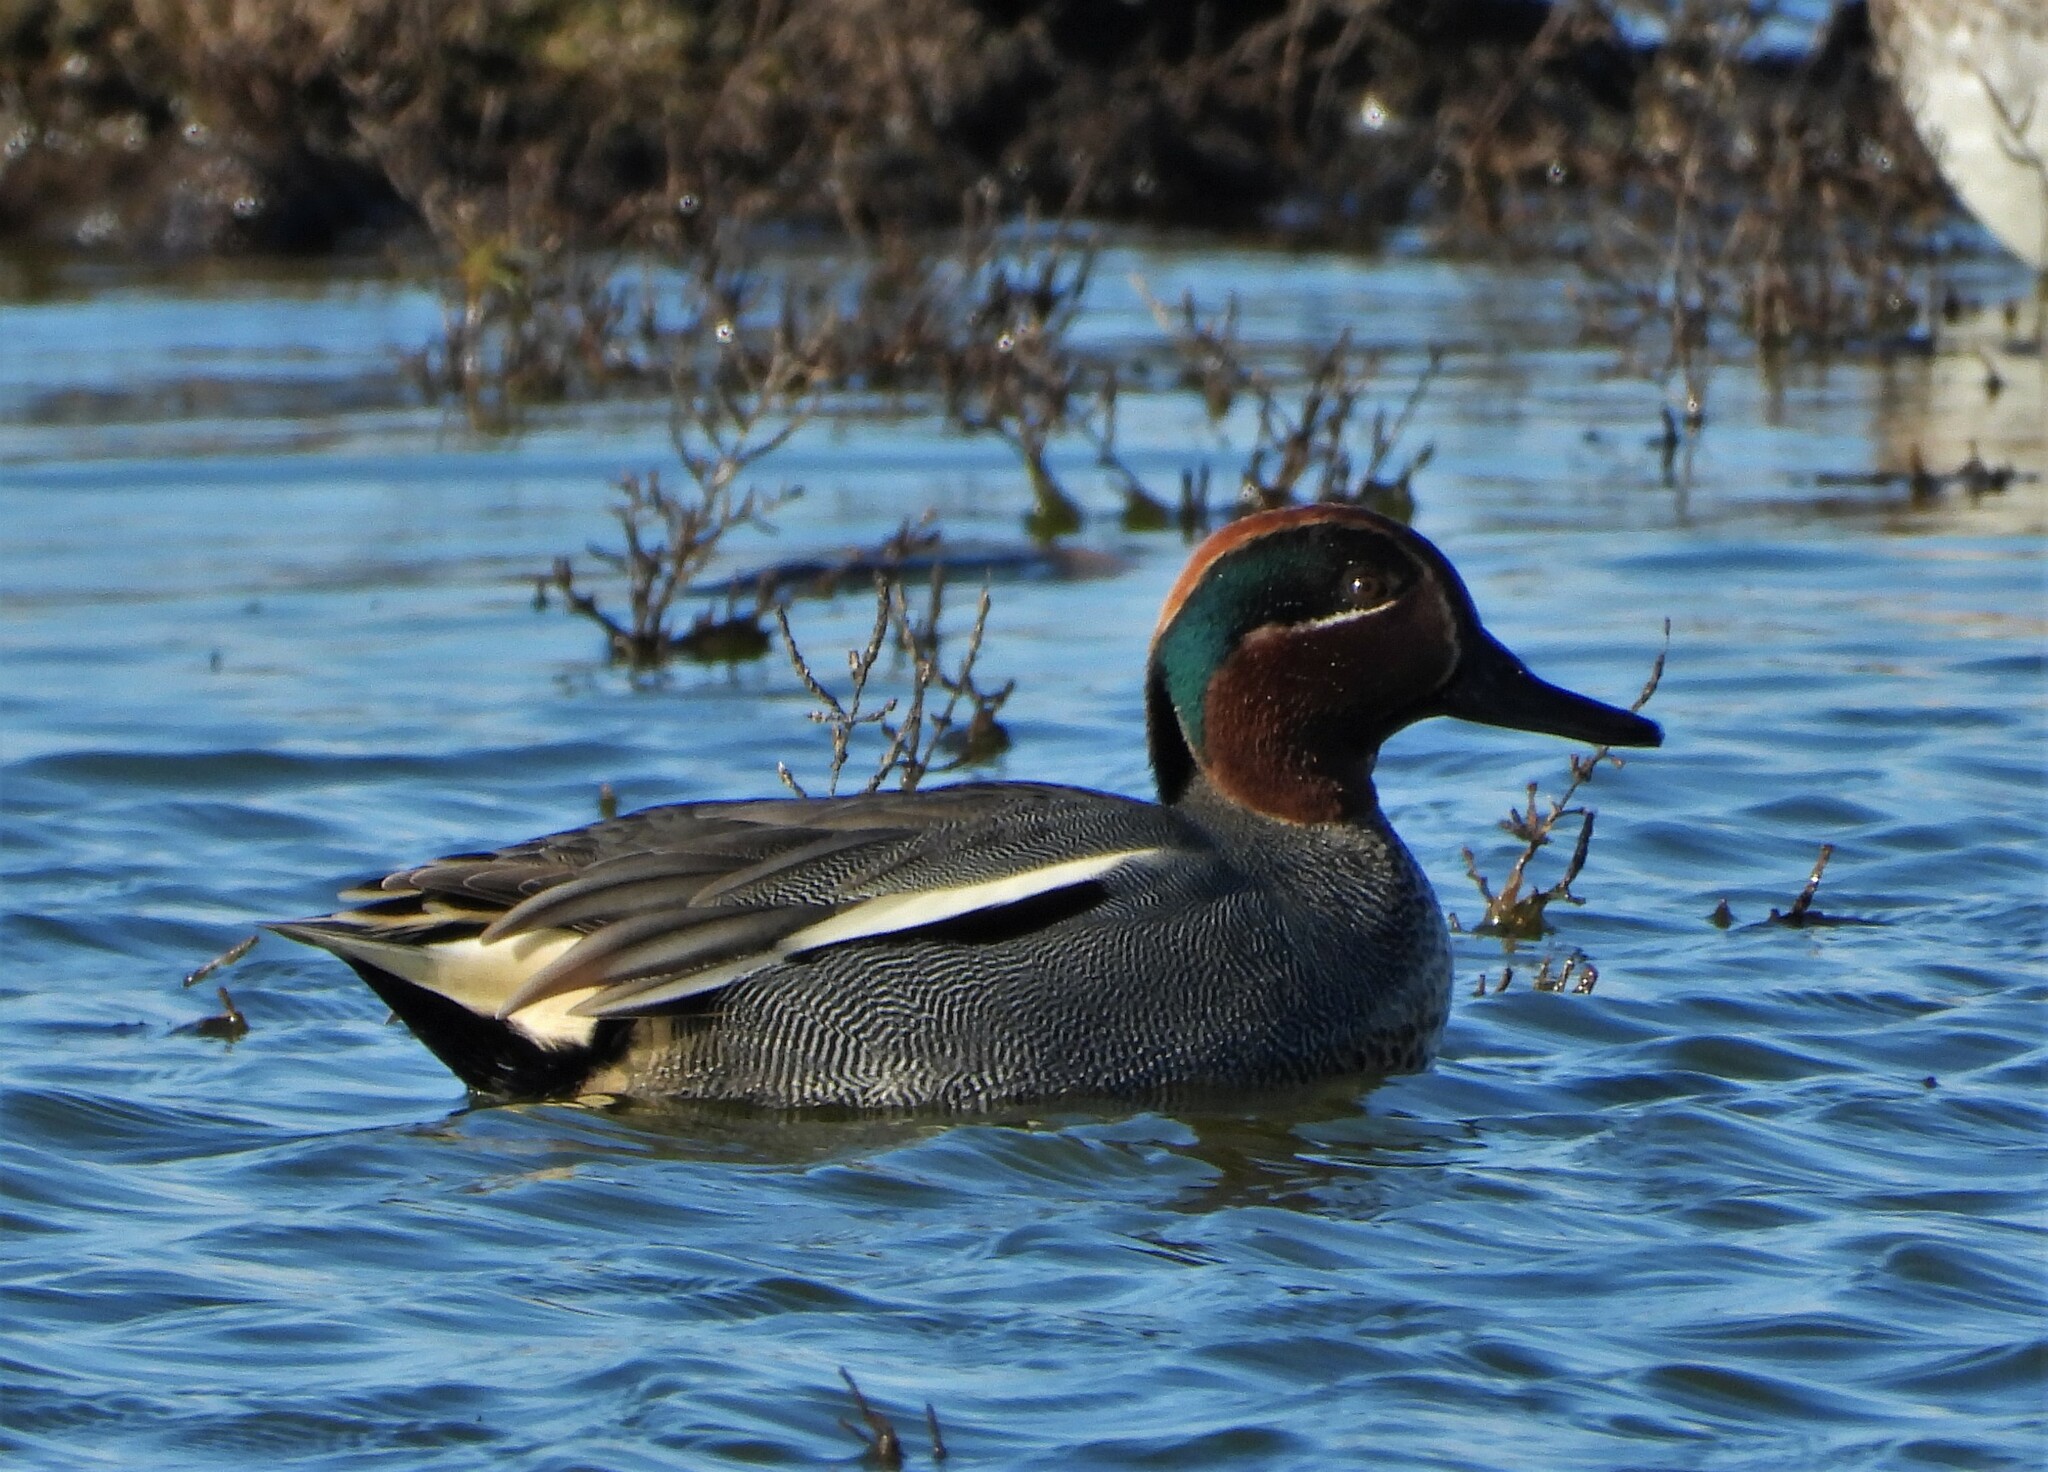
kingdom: Animalia
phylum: Chordata
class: Aves
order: Anseriformes
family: Anatidae
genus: Anas
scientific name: Anas crecca
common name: Eurasian teal
